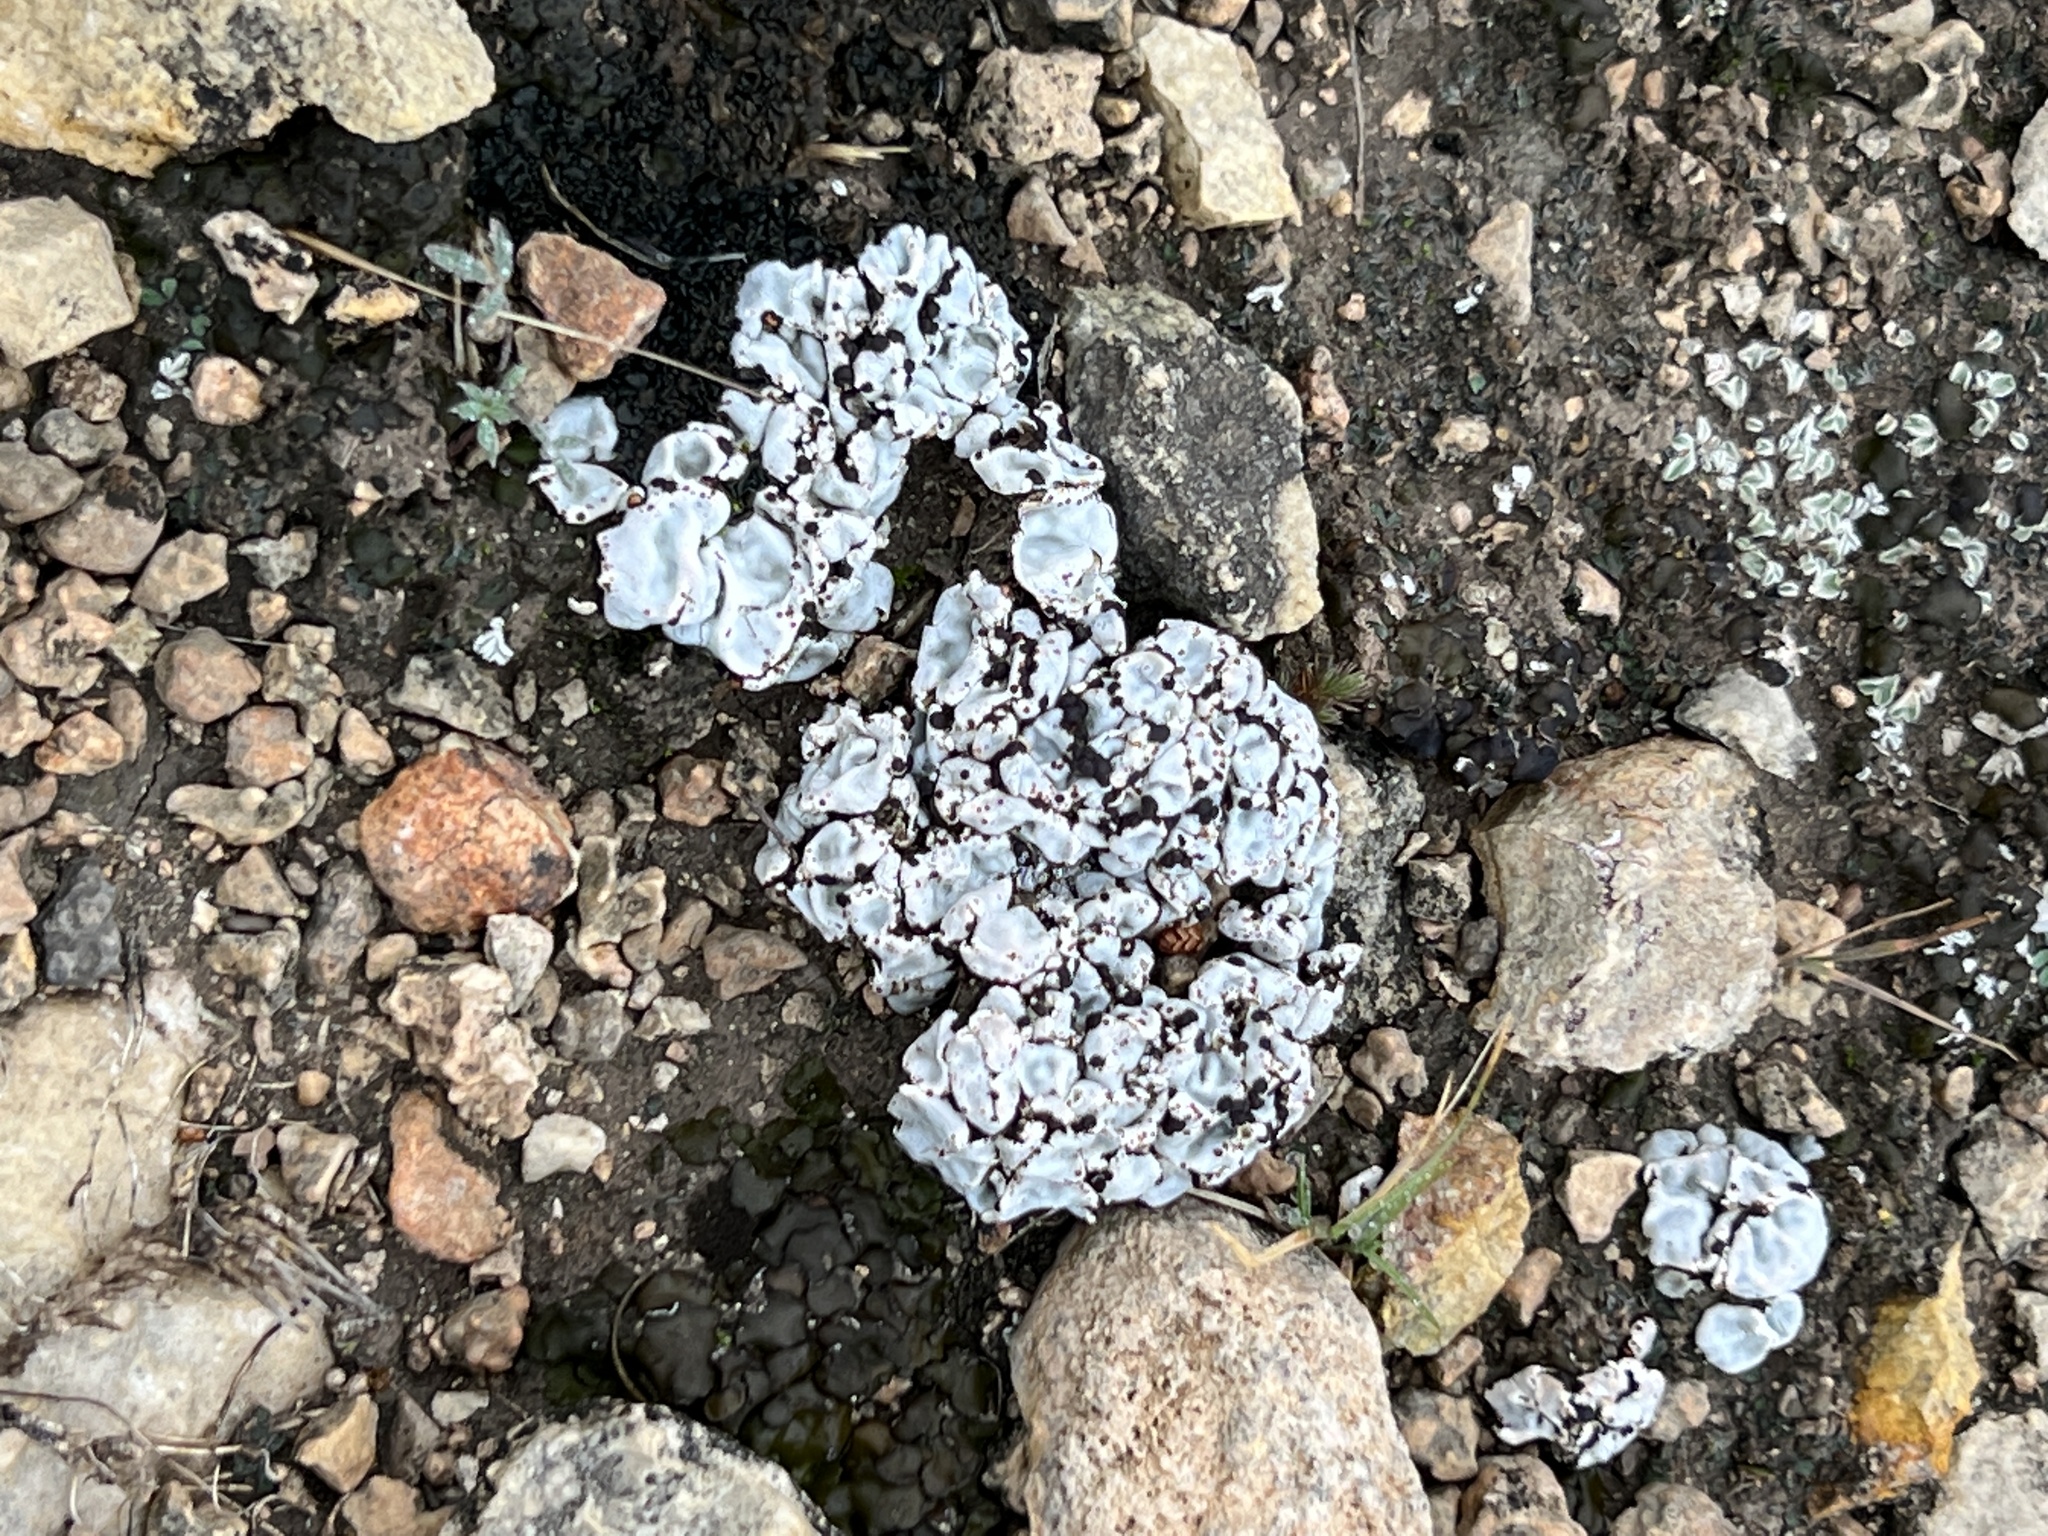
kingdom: Fungi
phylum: Ascomycota
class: Lecanoromycetes
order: Lecanorales
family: Psoraceae
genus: Psora
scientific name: Psora crenata
